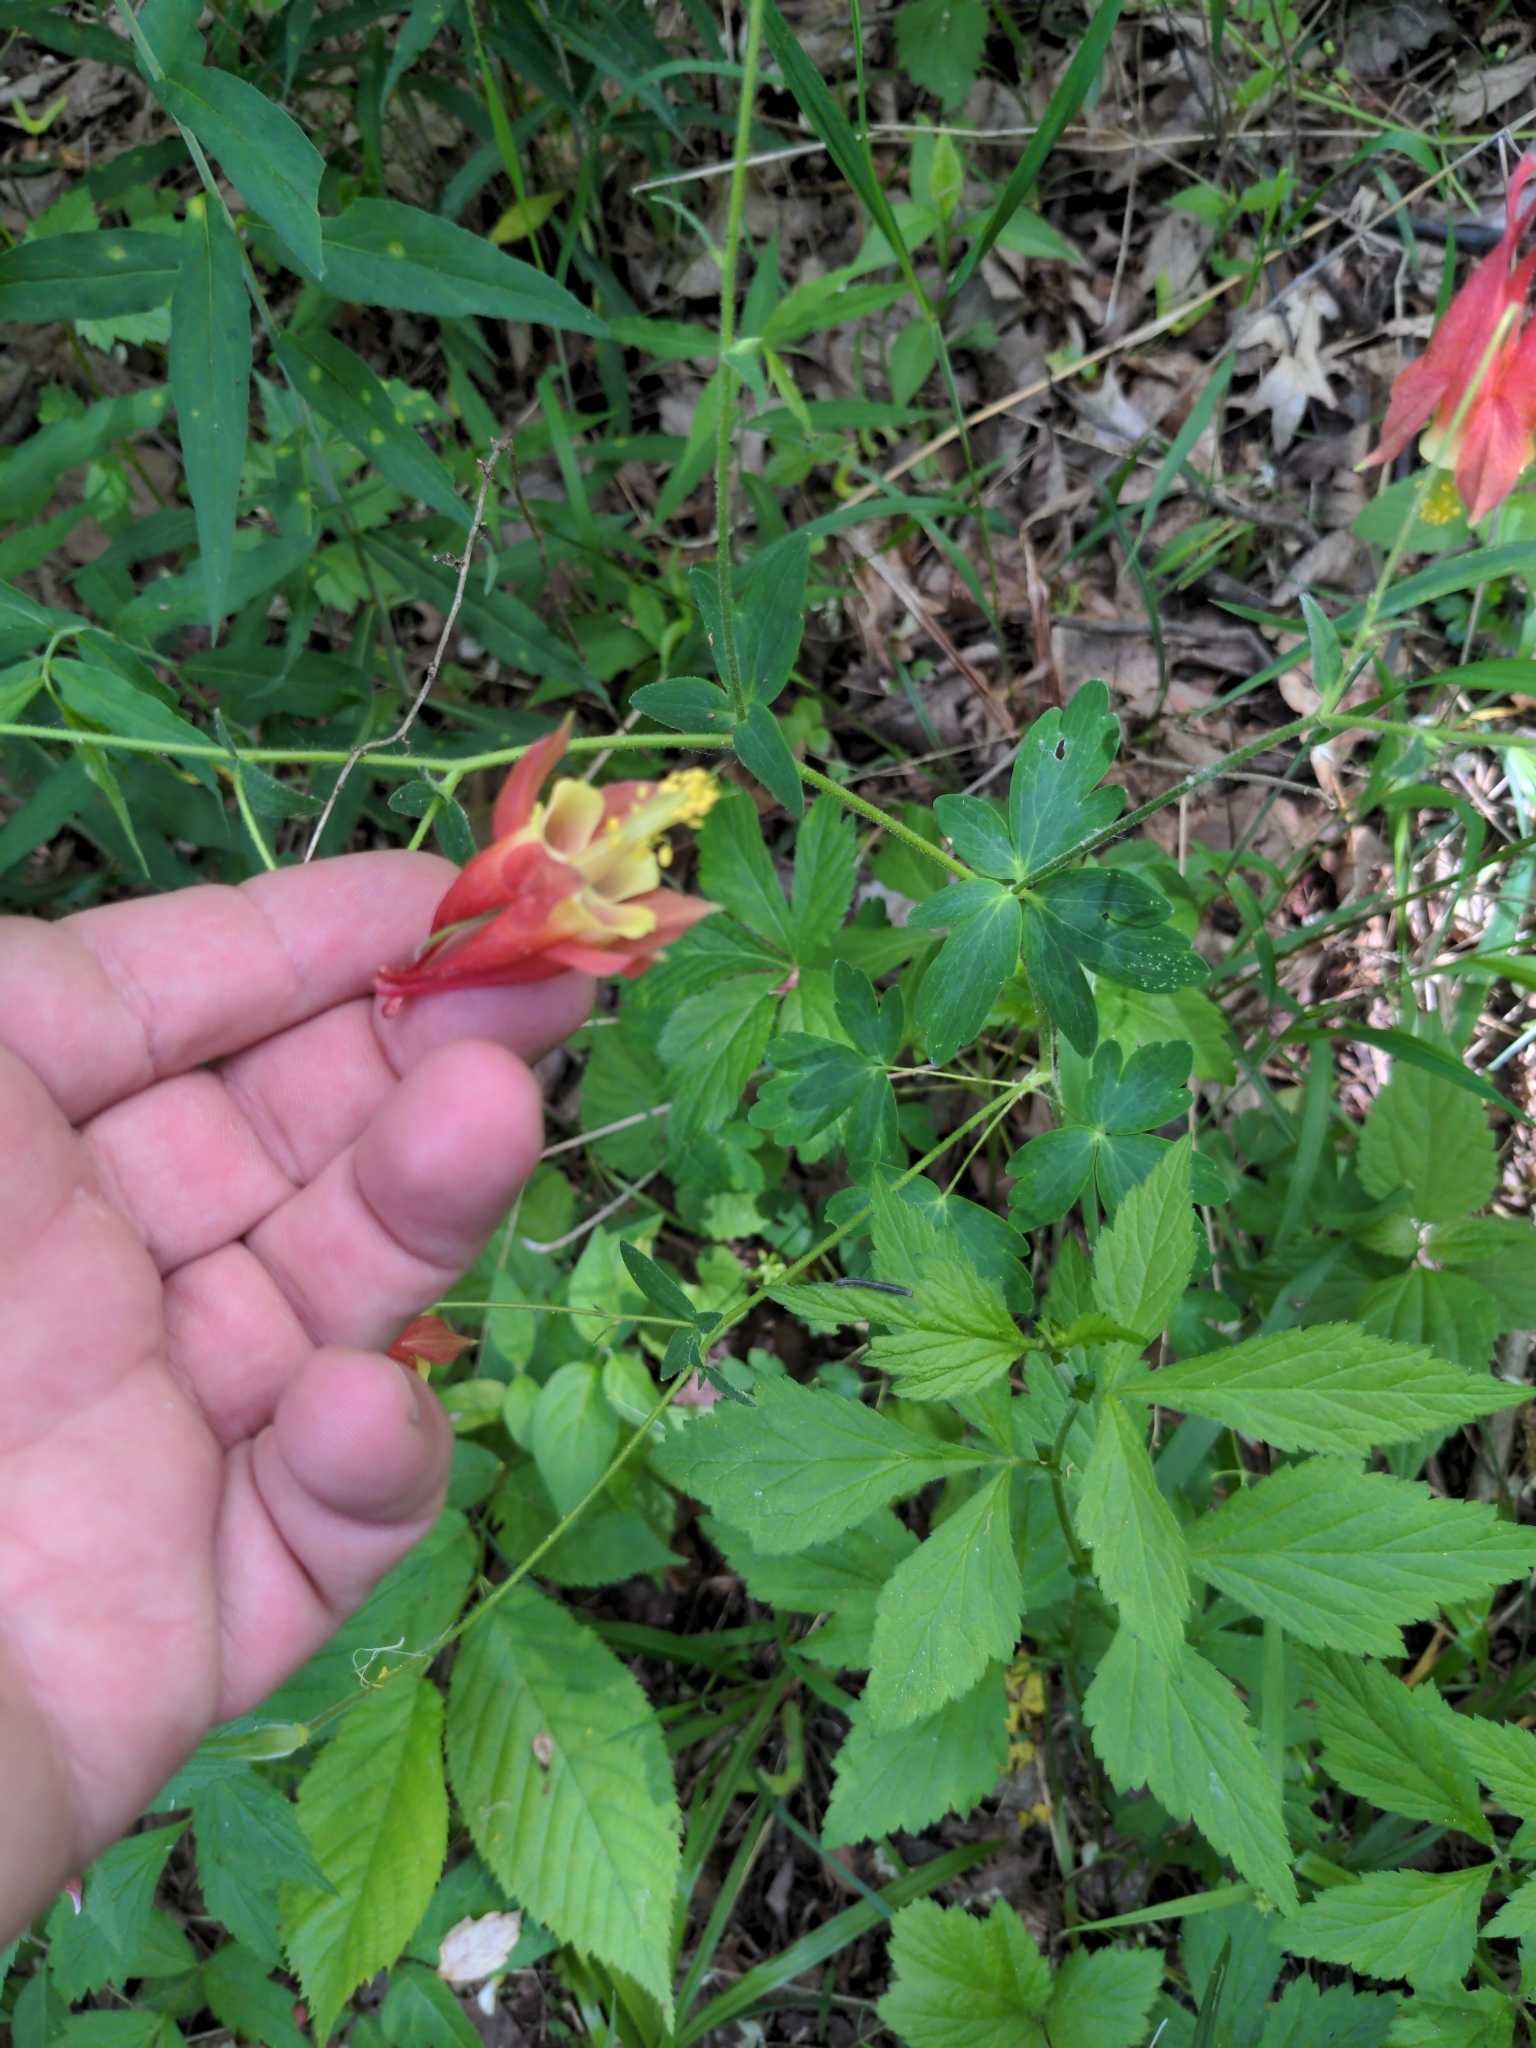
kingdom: Plantae
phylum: Tracheophyta
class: Magnoliopsida
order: Ranunculales
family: Ranunculaceae
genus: Aquilegia
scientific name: Aquilegia canadensis
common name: American columbine
